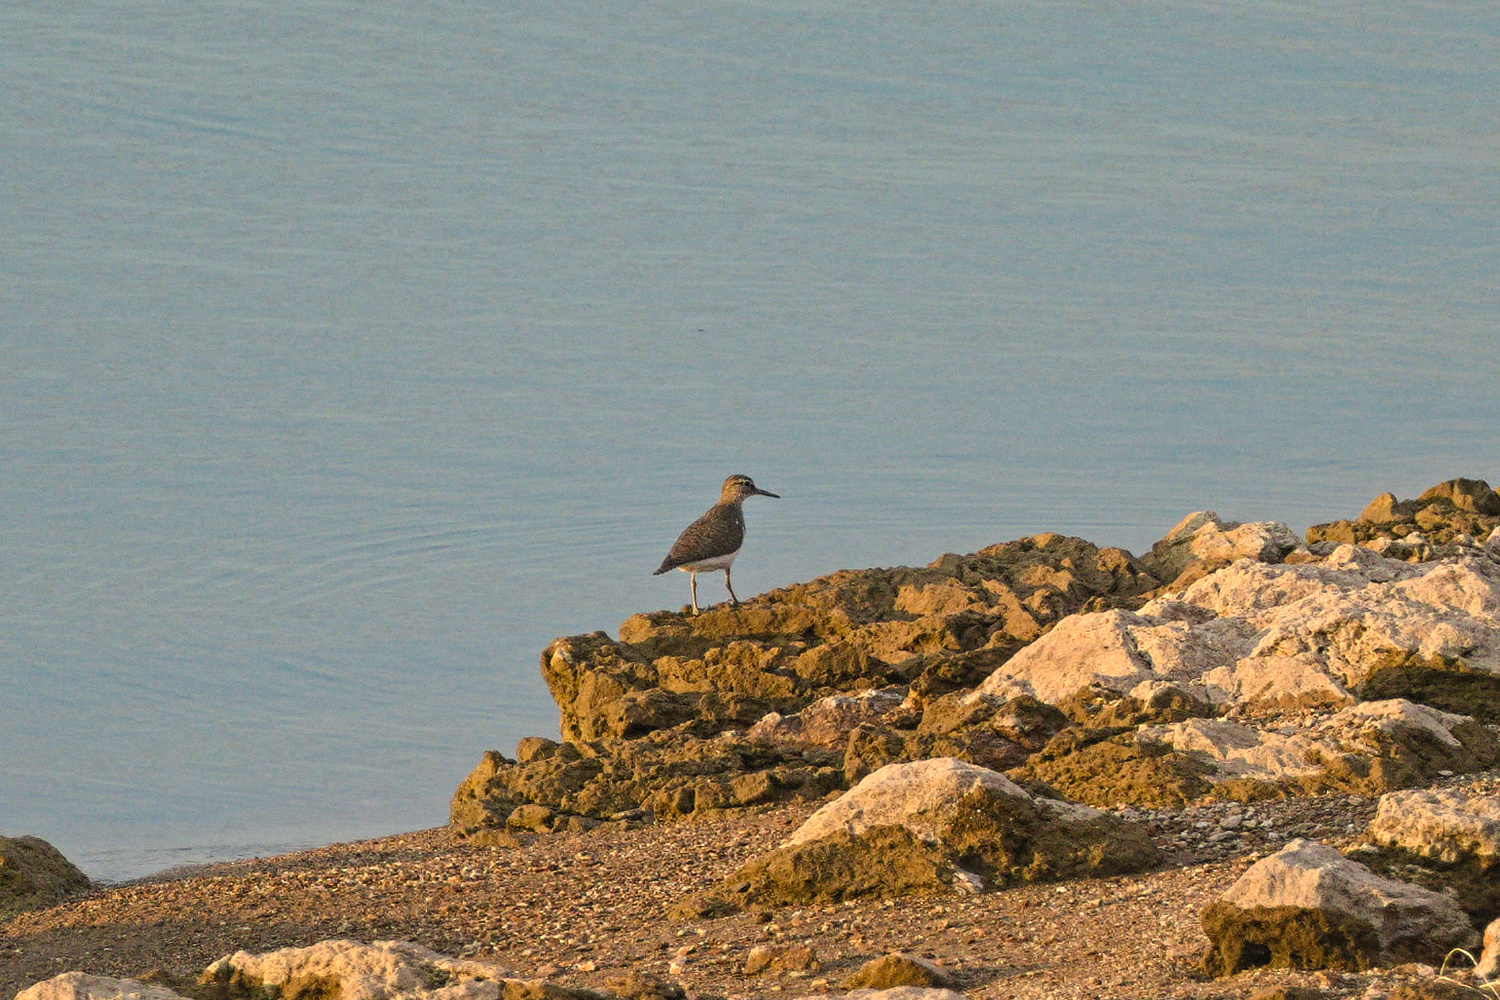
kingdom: Animalia
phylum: Chordata
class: Aves
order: Charadriiformes
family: Scolopacidae
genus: Actitis
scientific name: Actitis hypoleucos
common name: Common sandpiper
